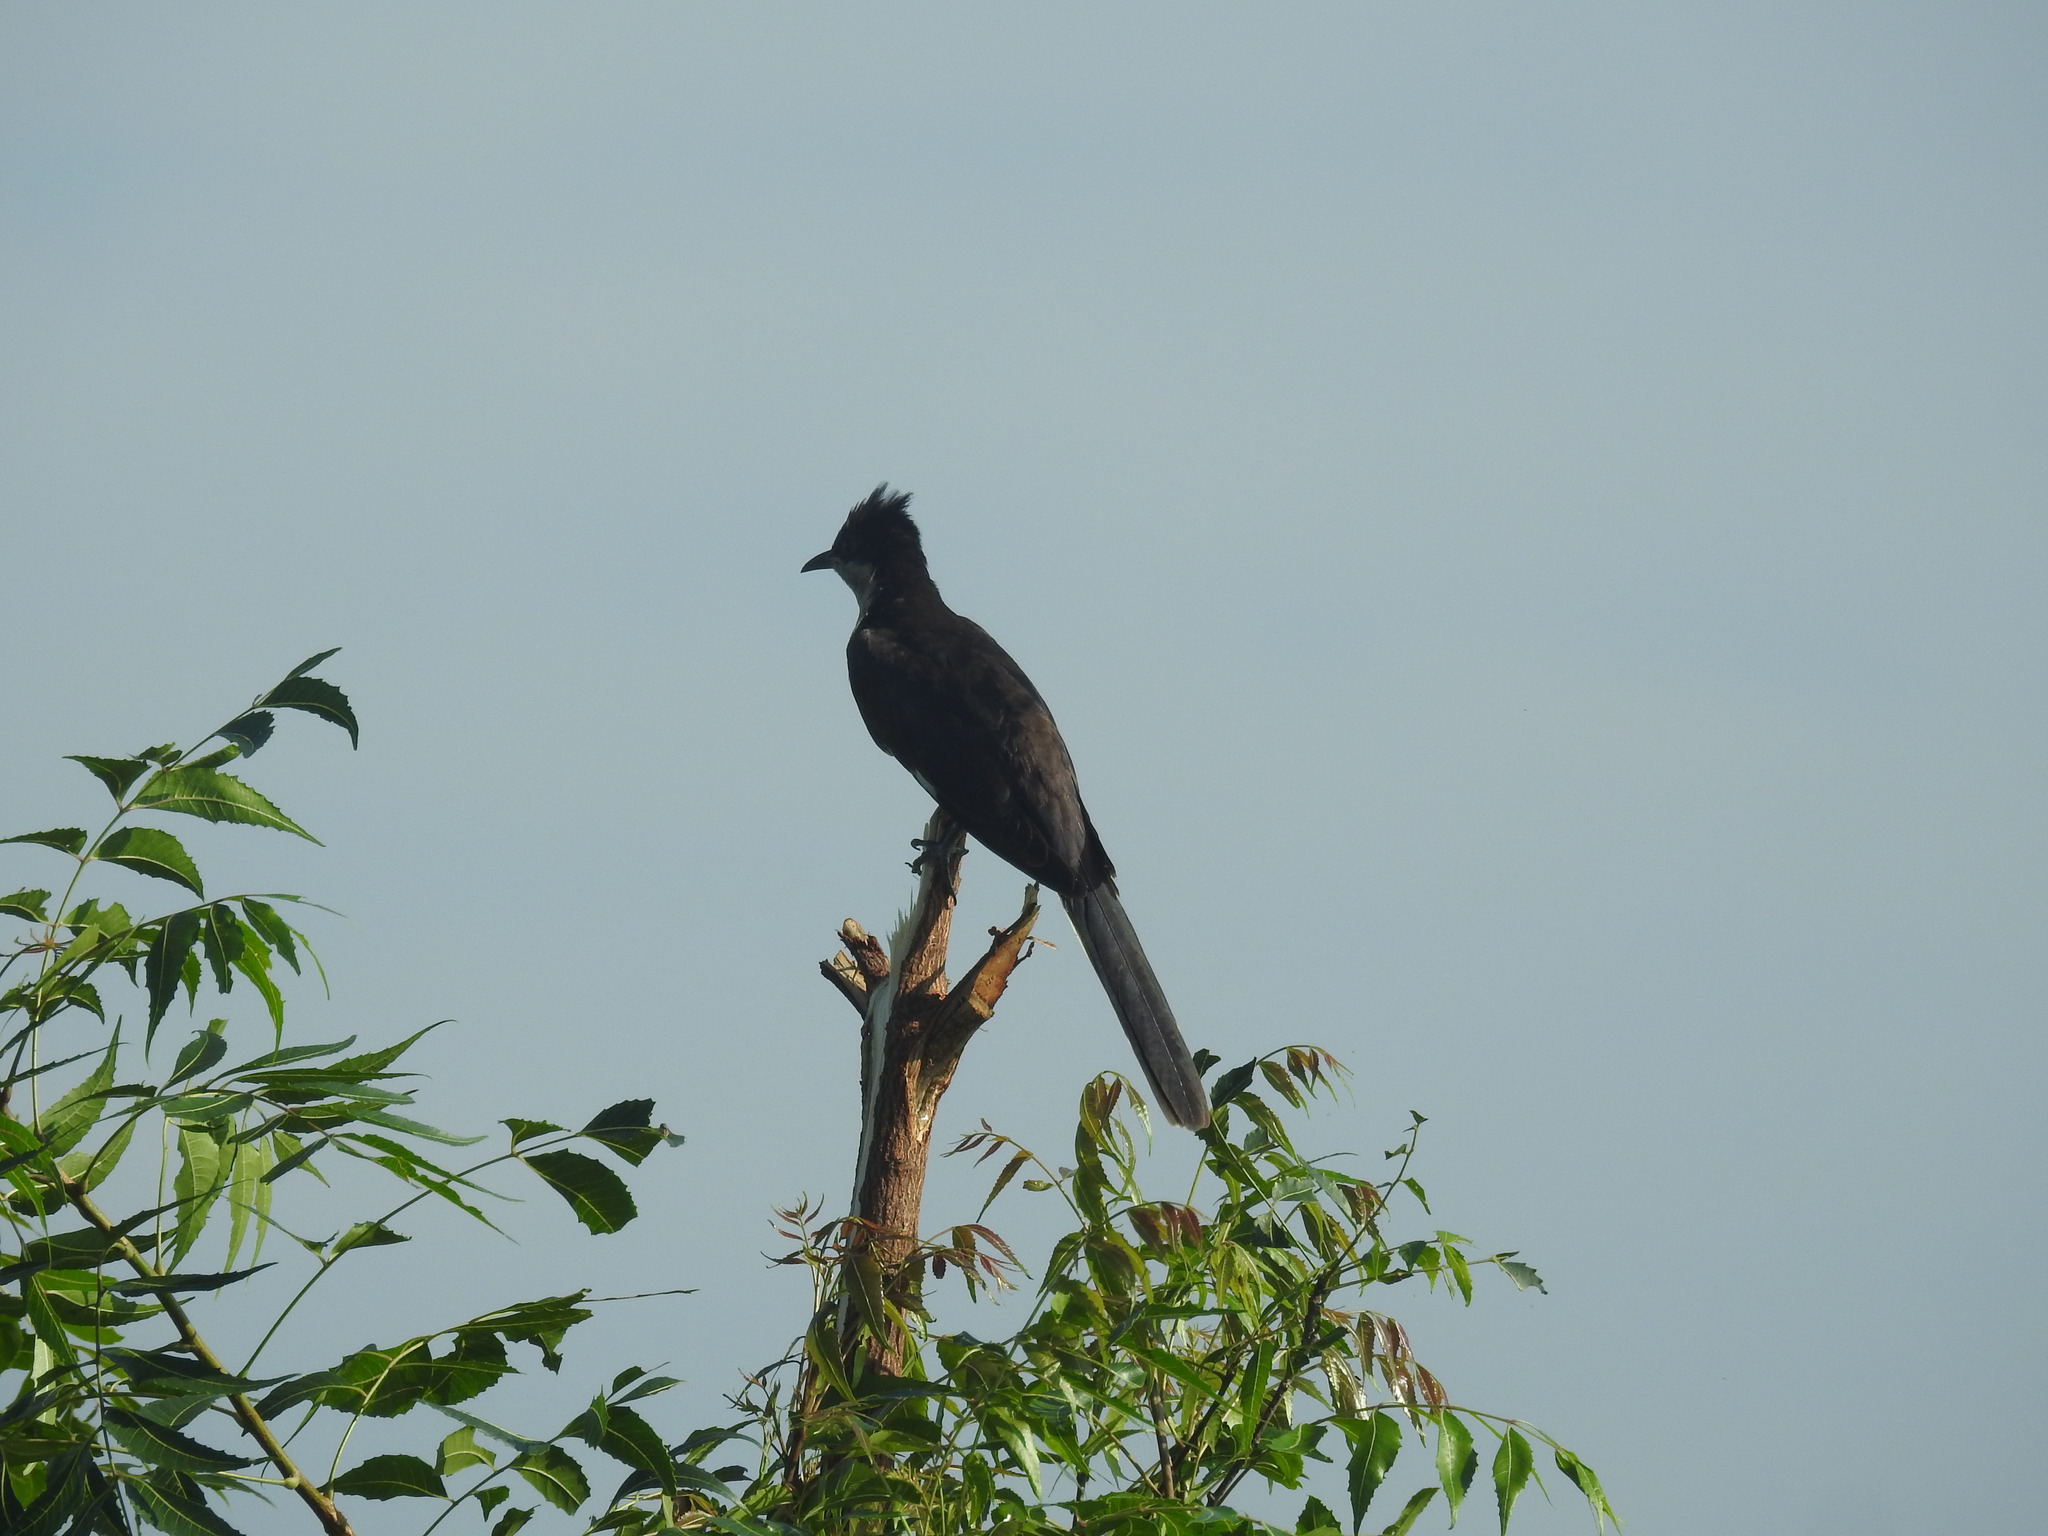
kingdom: Animalia
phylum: Chordata
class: Aves
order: Cuculiformes
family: Cuculidae
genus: Clamator
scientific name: Clamator jacobinus
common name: Jacobin cuckoo
